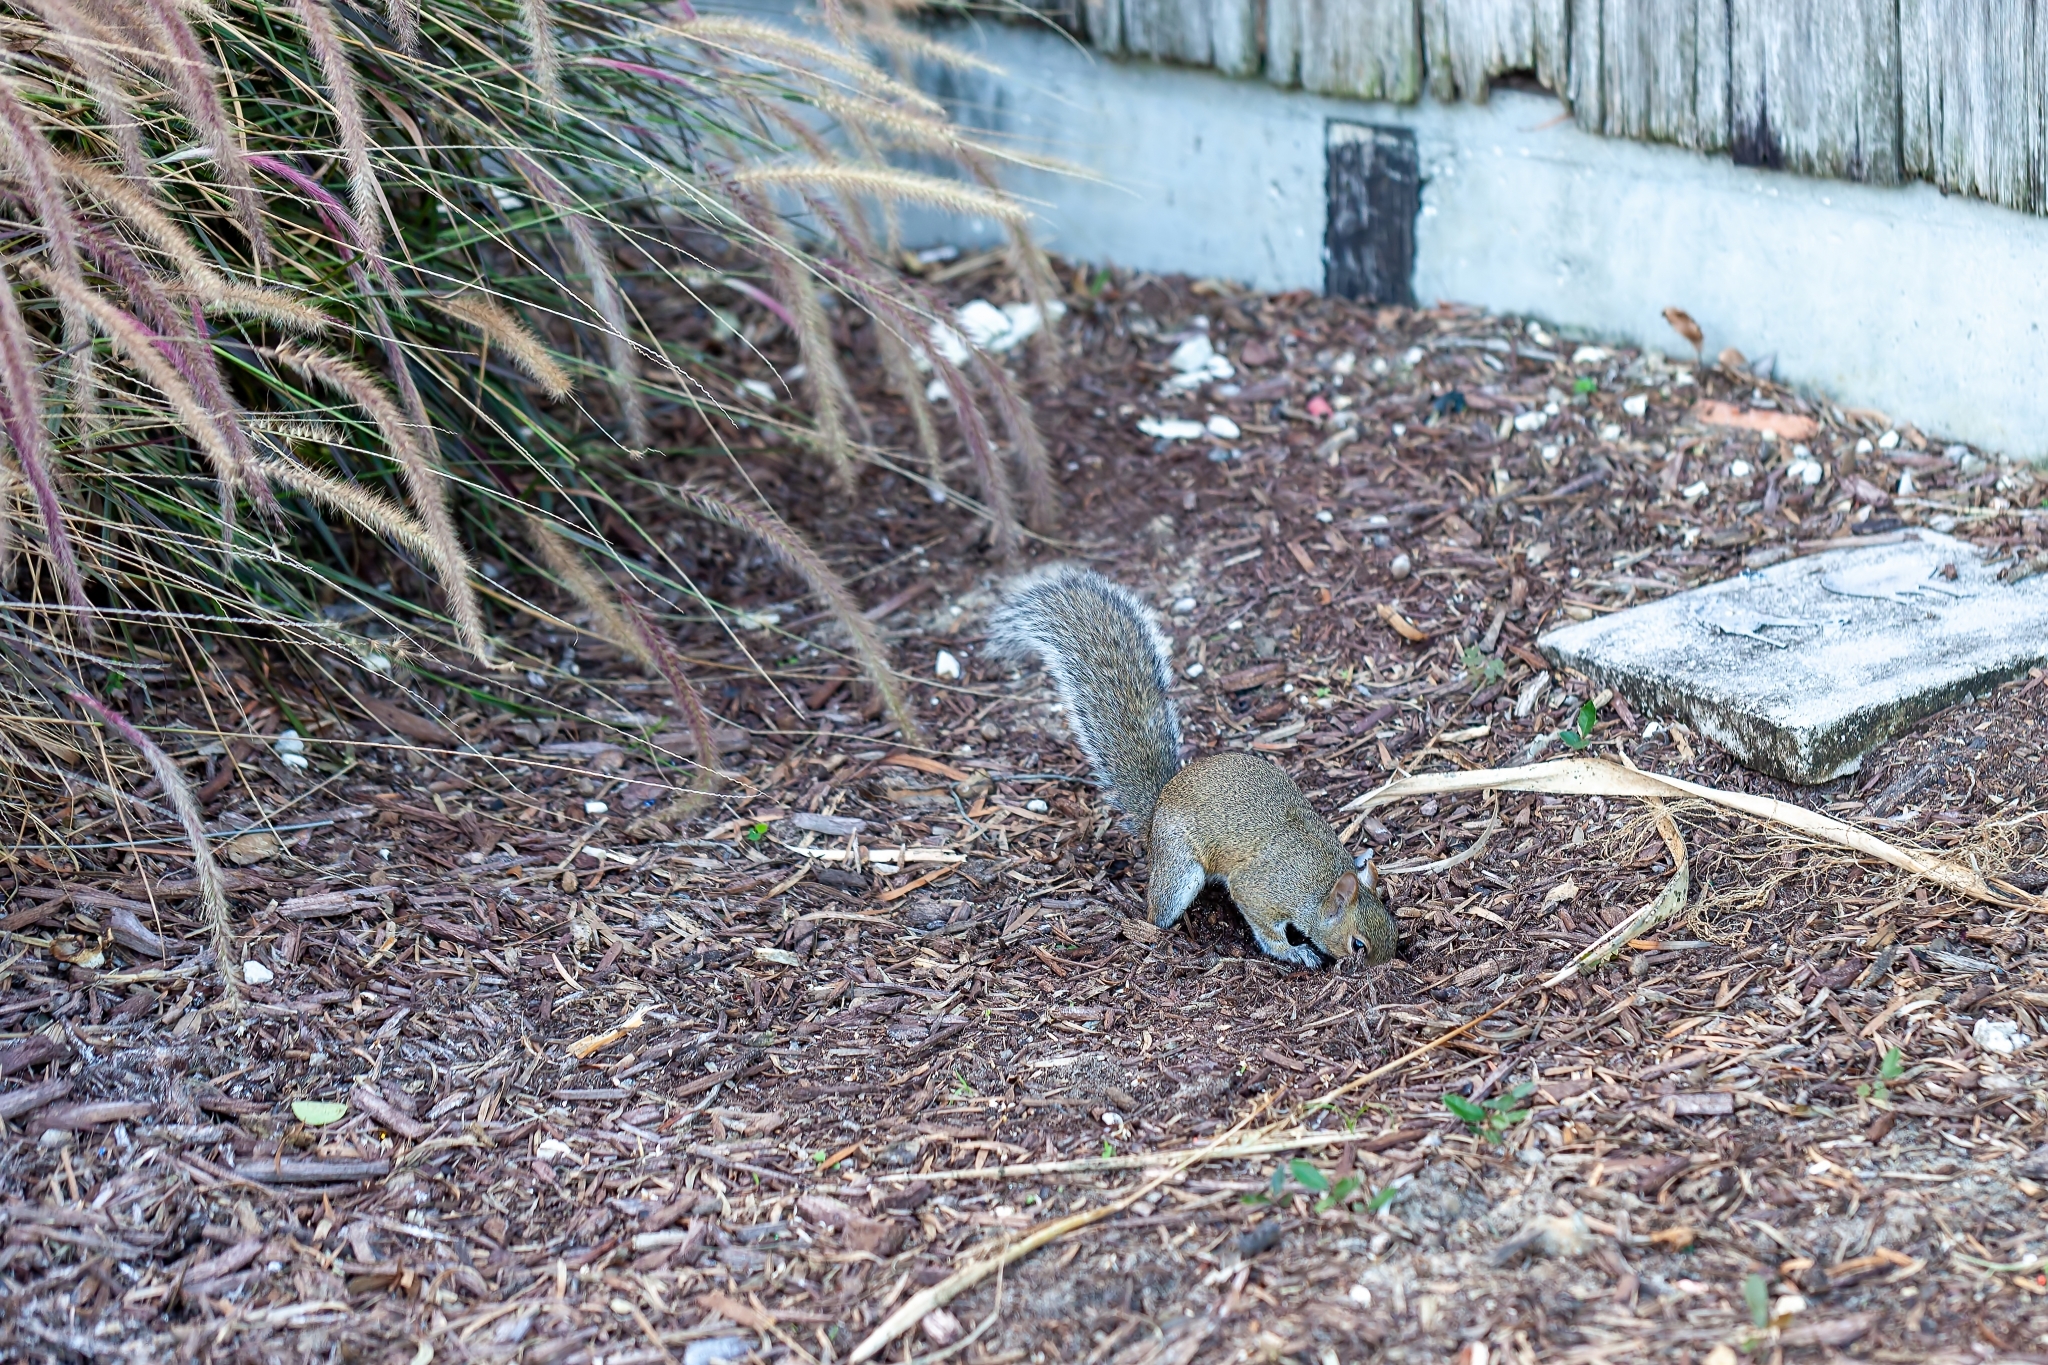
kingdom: Animalia
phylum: Chordata
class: Mammalia
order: Rodentia
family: Sciuridae
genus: Sciurus
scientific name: Sciurus carolinensis
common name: Eastern gray squirrel
